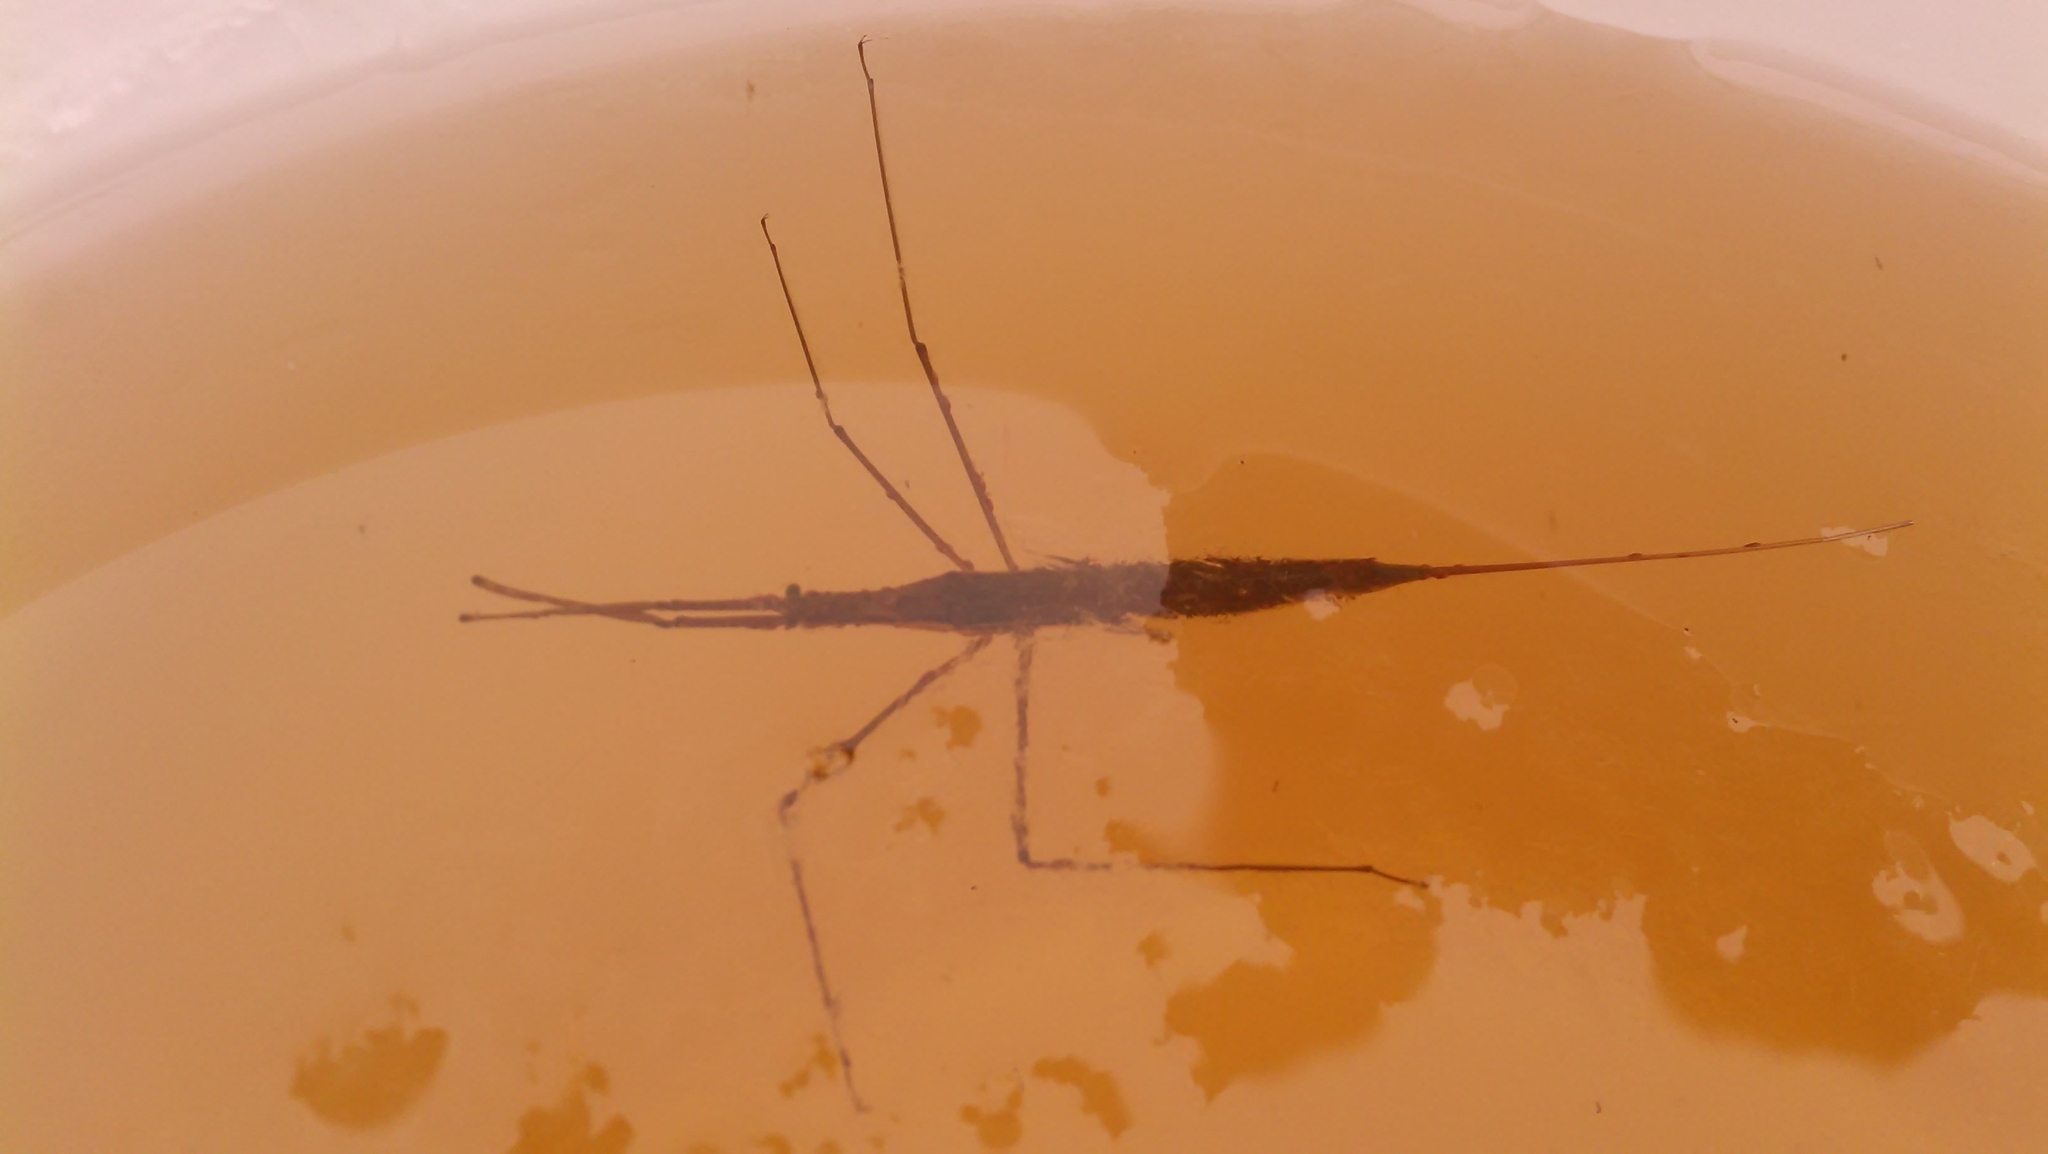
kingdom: Animalia
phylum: Arthropoda
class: Insecta
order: Hemiptera
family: Nepidae
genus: Ranatra
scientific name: Ranatra linearis
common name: Water stick insect
